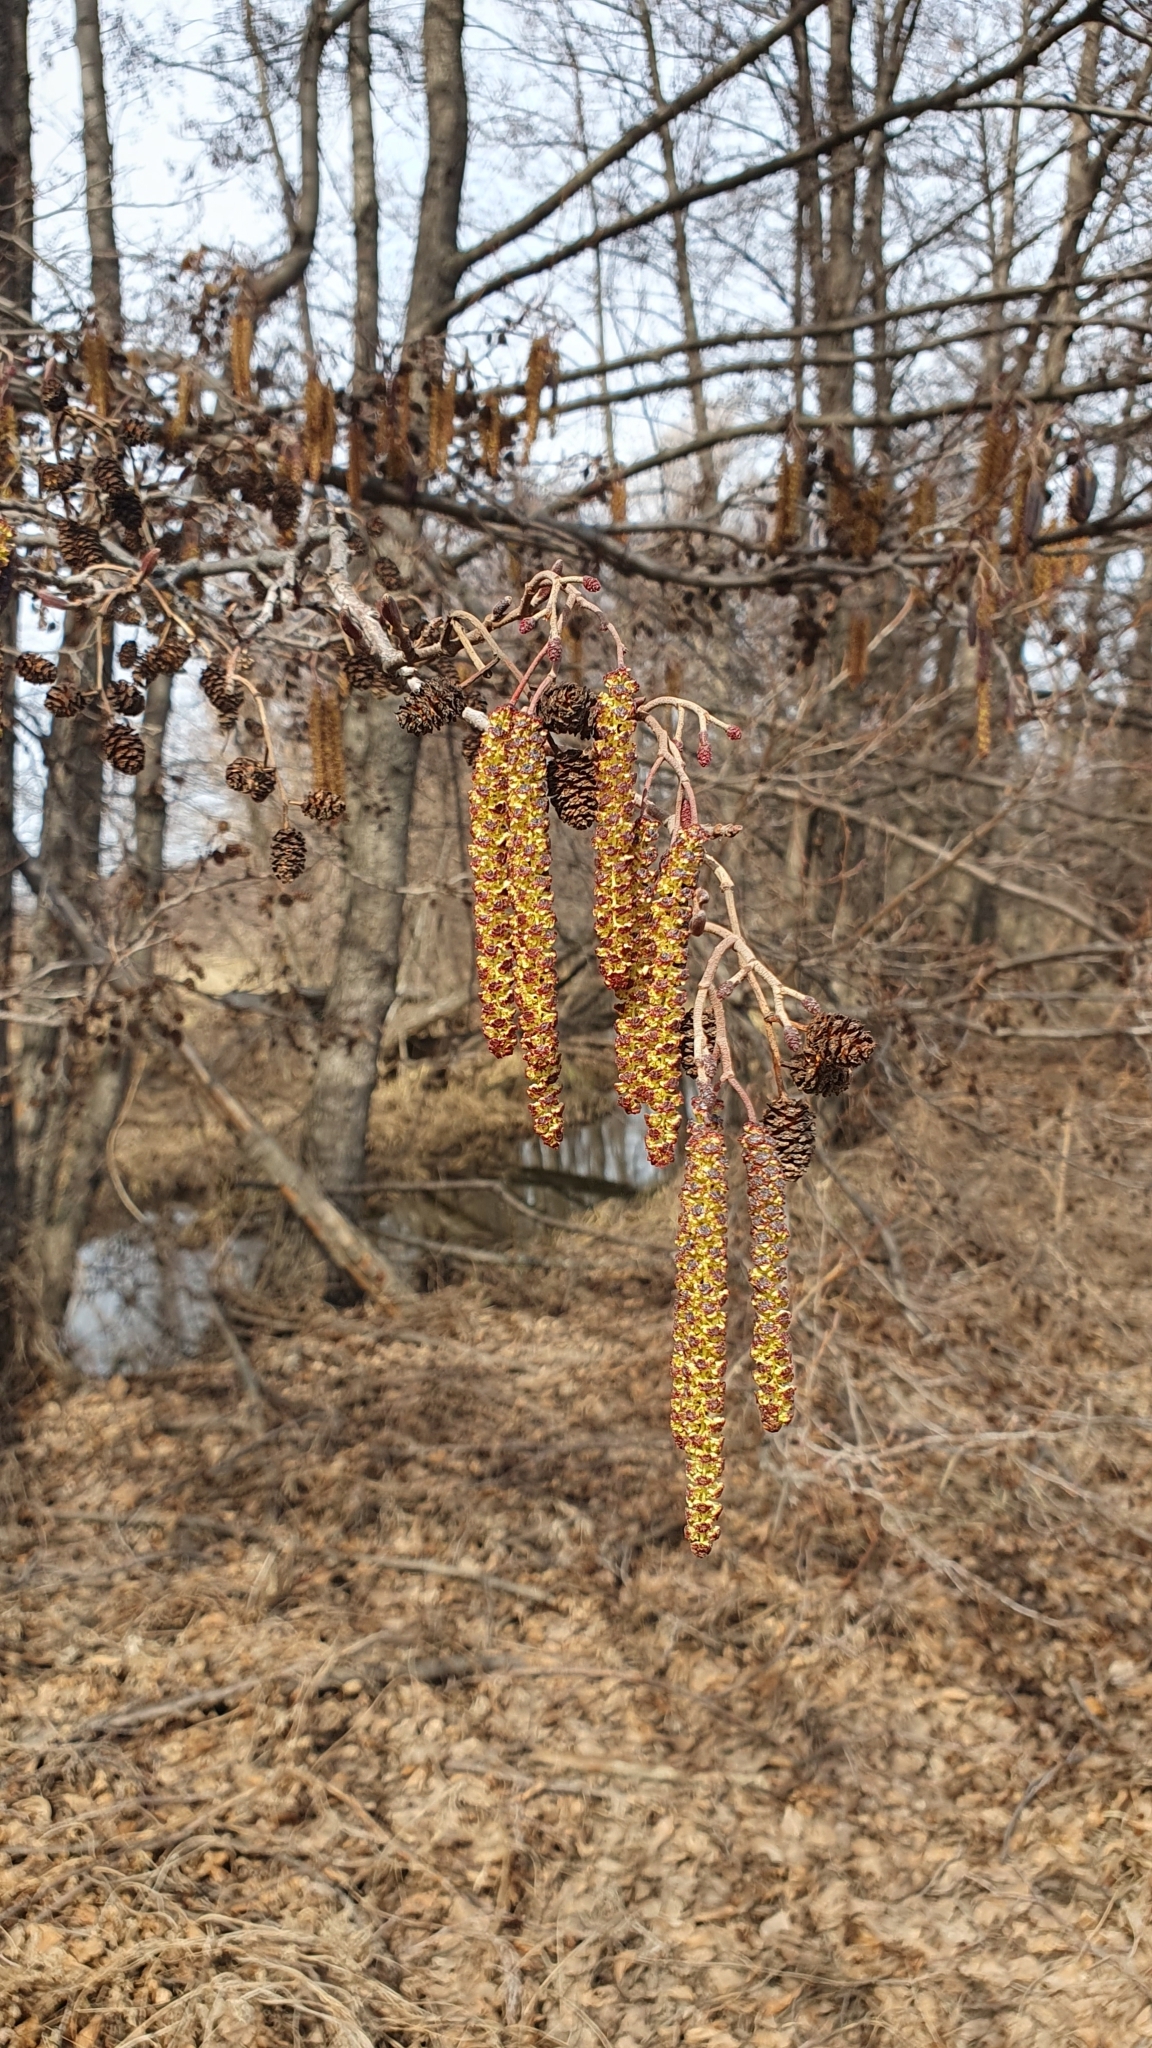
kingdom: Plantae
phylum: Tracheophyta
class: Magnoliopsida
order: Fagales
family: Betulaceae
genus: Alnus
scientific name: Alnus glutinosa
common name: Black alder
